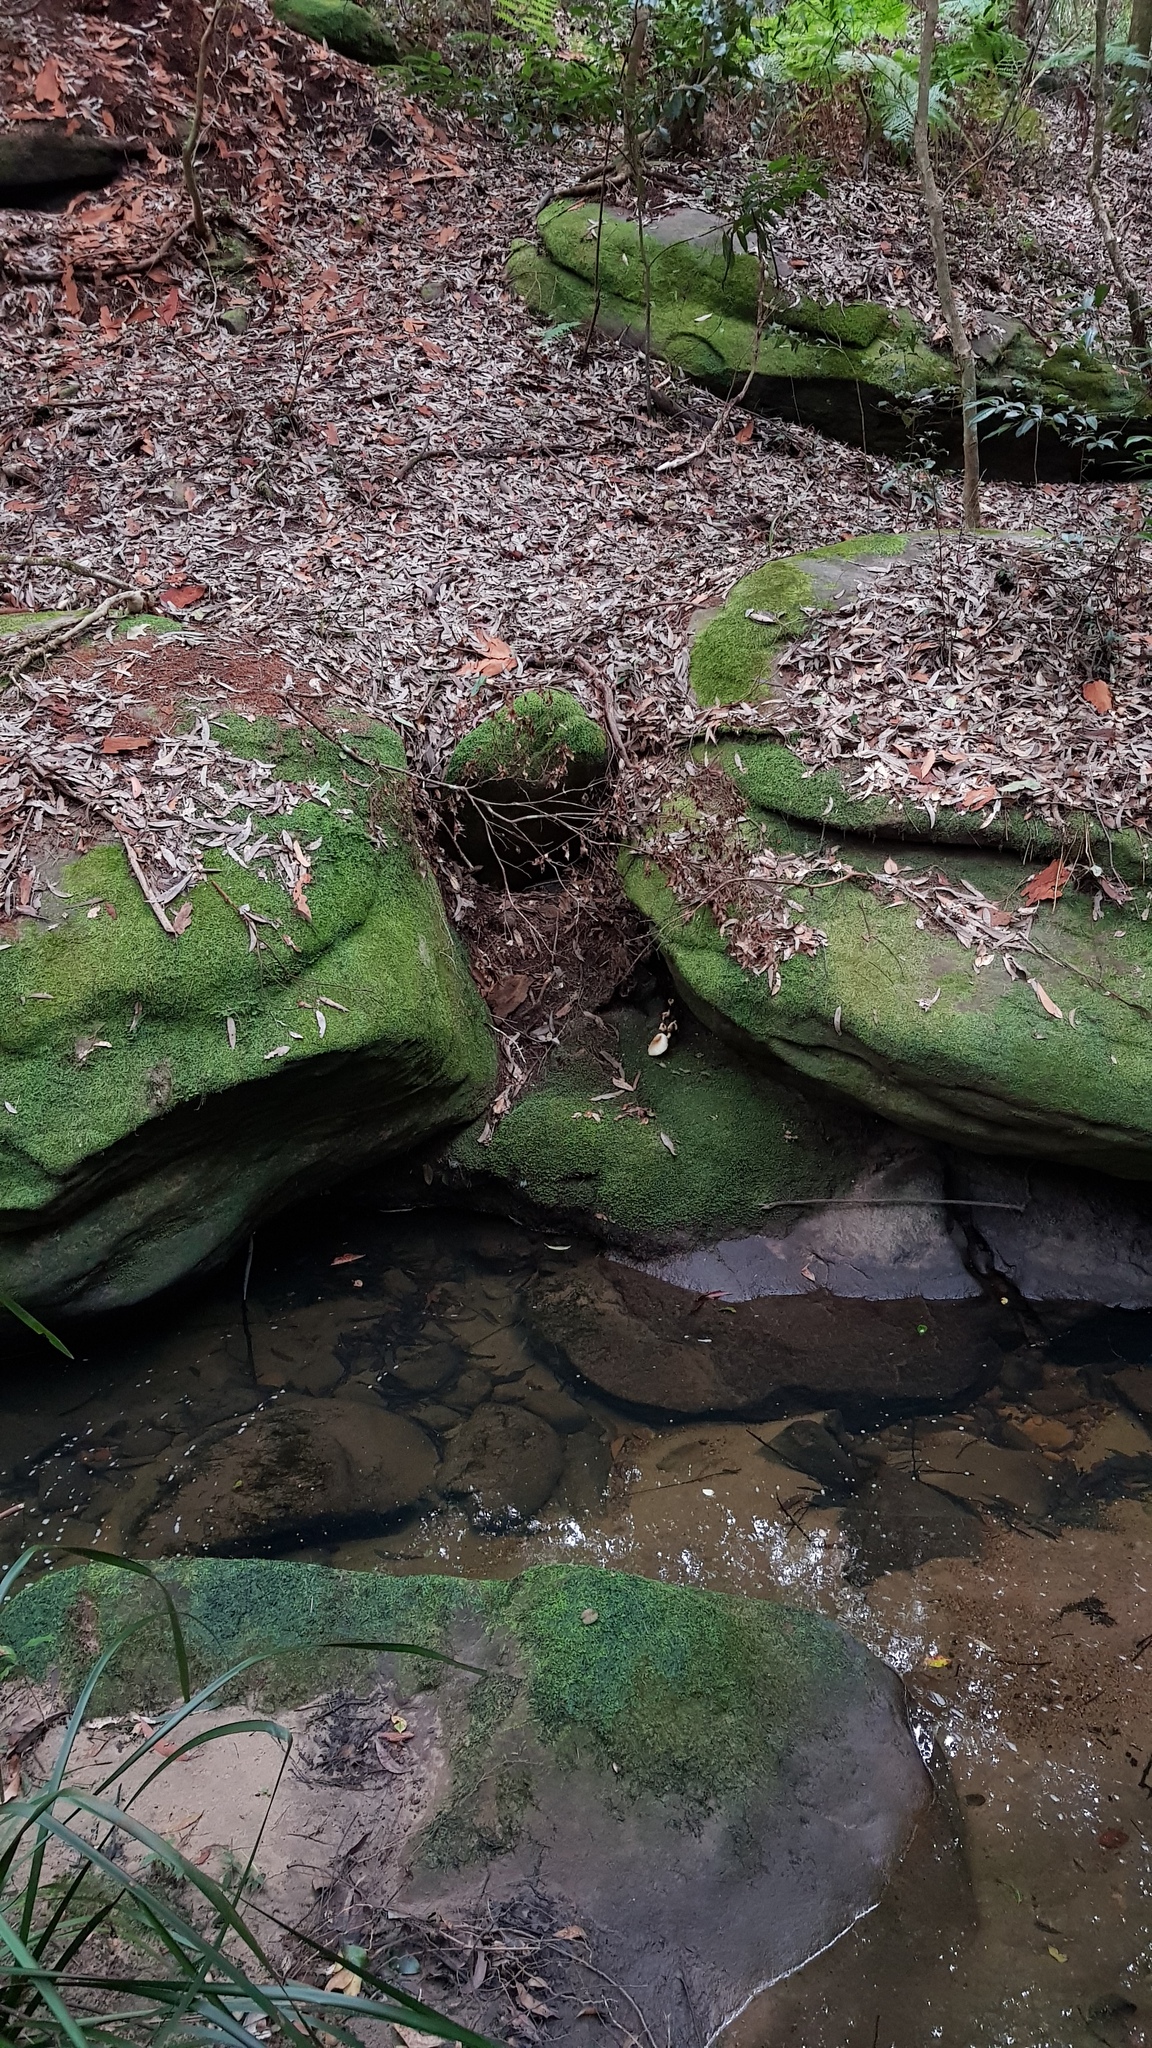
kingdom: Fungi
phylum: Basidiomycota
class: Agaricomycetes
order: Agaricales
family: Omphalotaceae
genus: Omphalotus
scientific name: Omphalotus nidiformis
